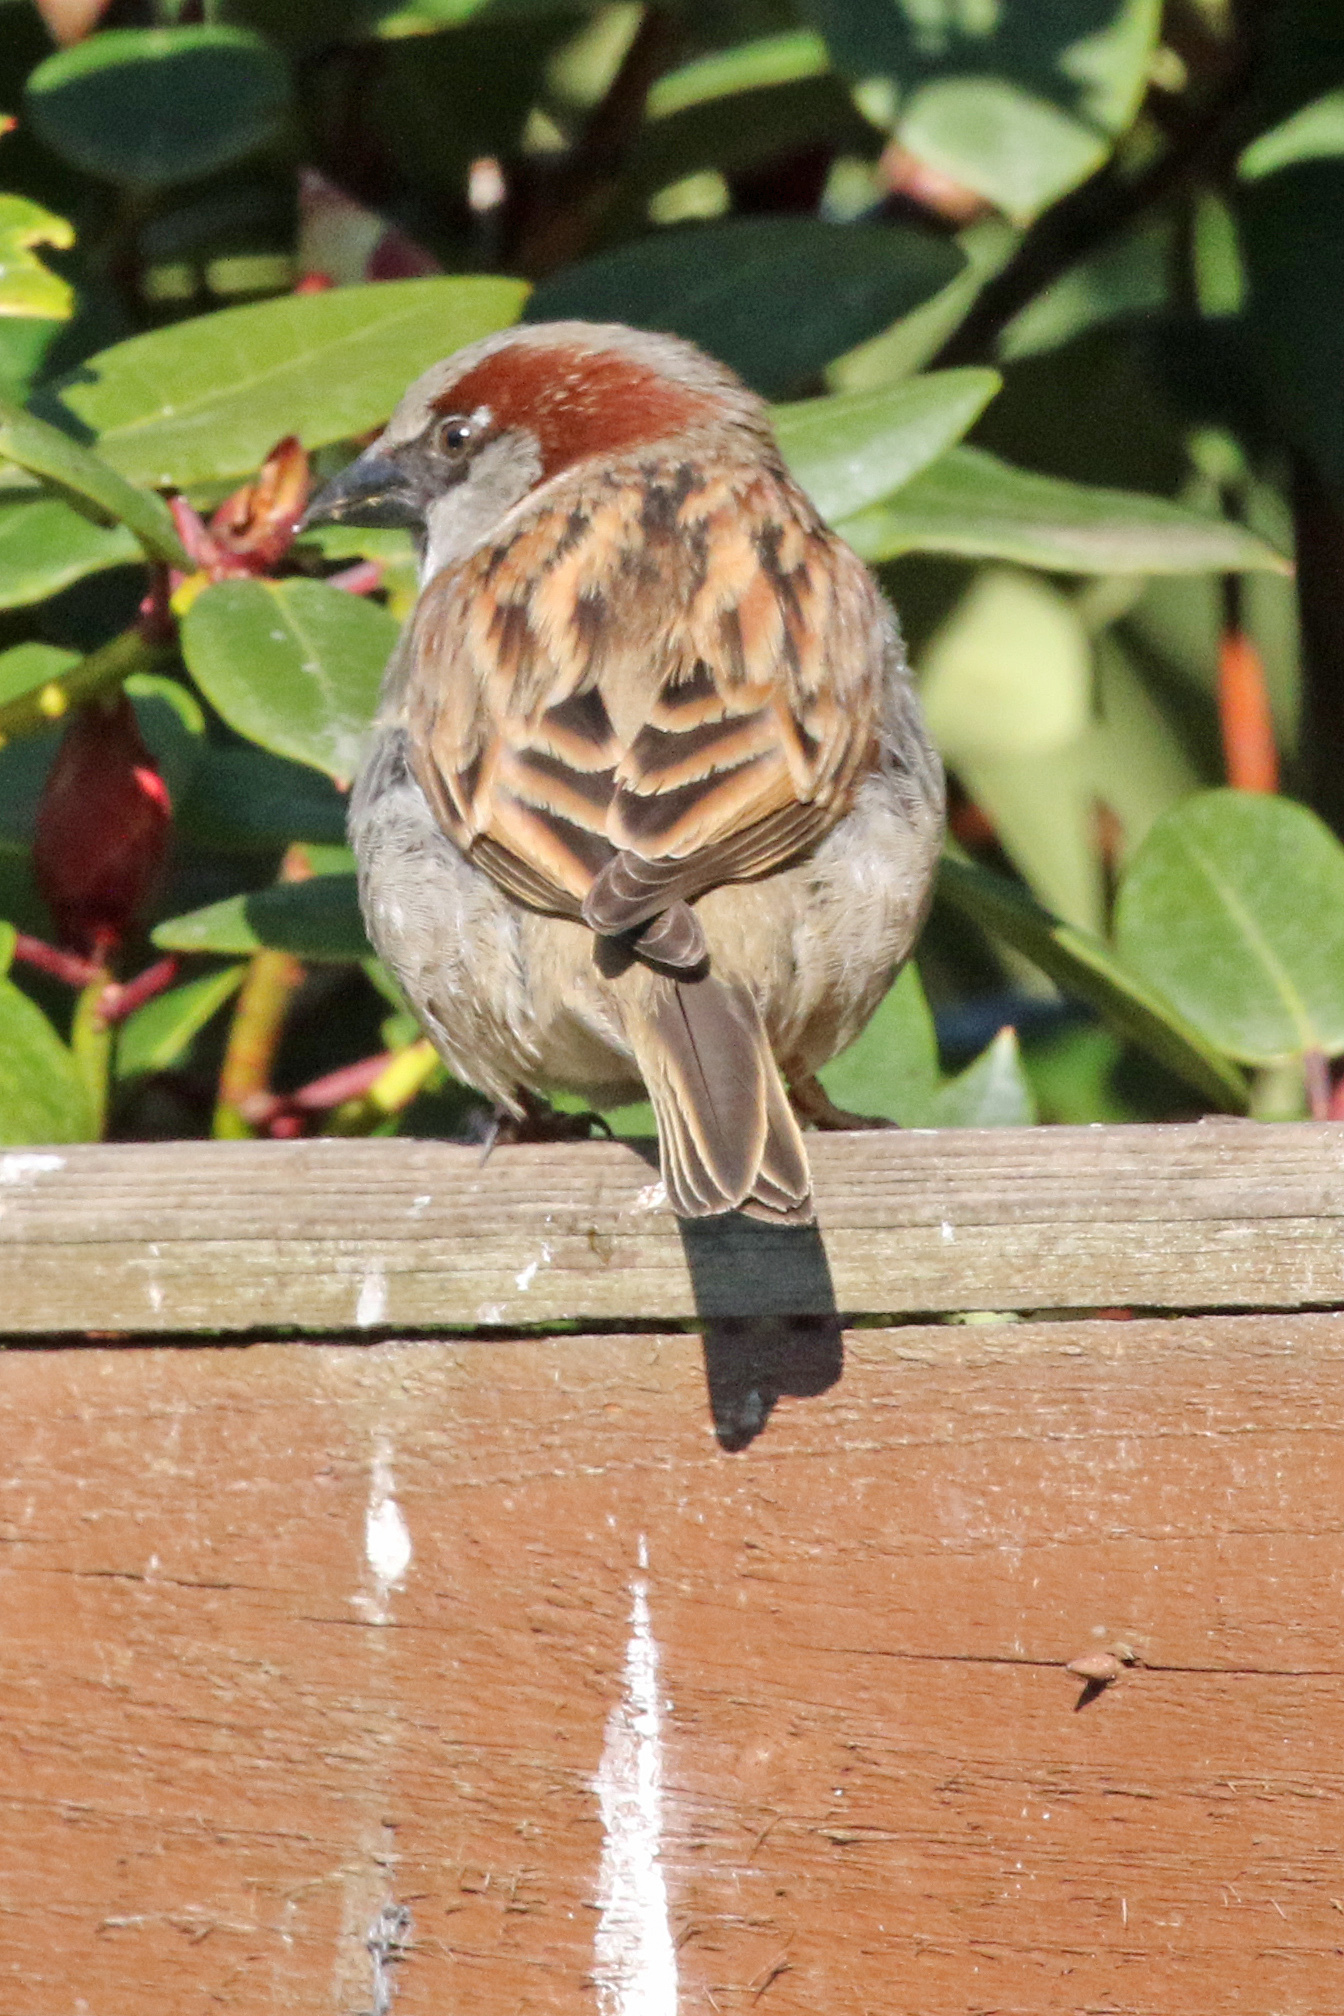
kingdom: Animalia
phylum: Chordata
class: Aves
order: Passeriformes
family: Passeridae
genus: Passer
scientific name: Passer domesticus
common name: House sparrow
